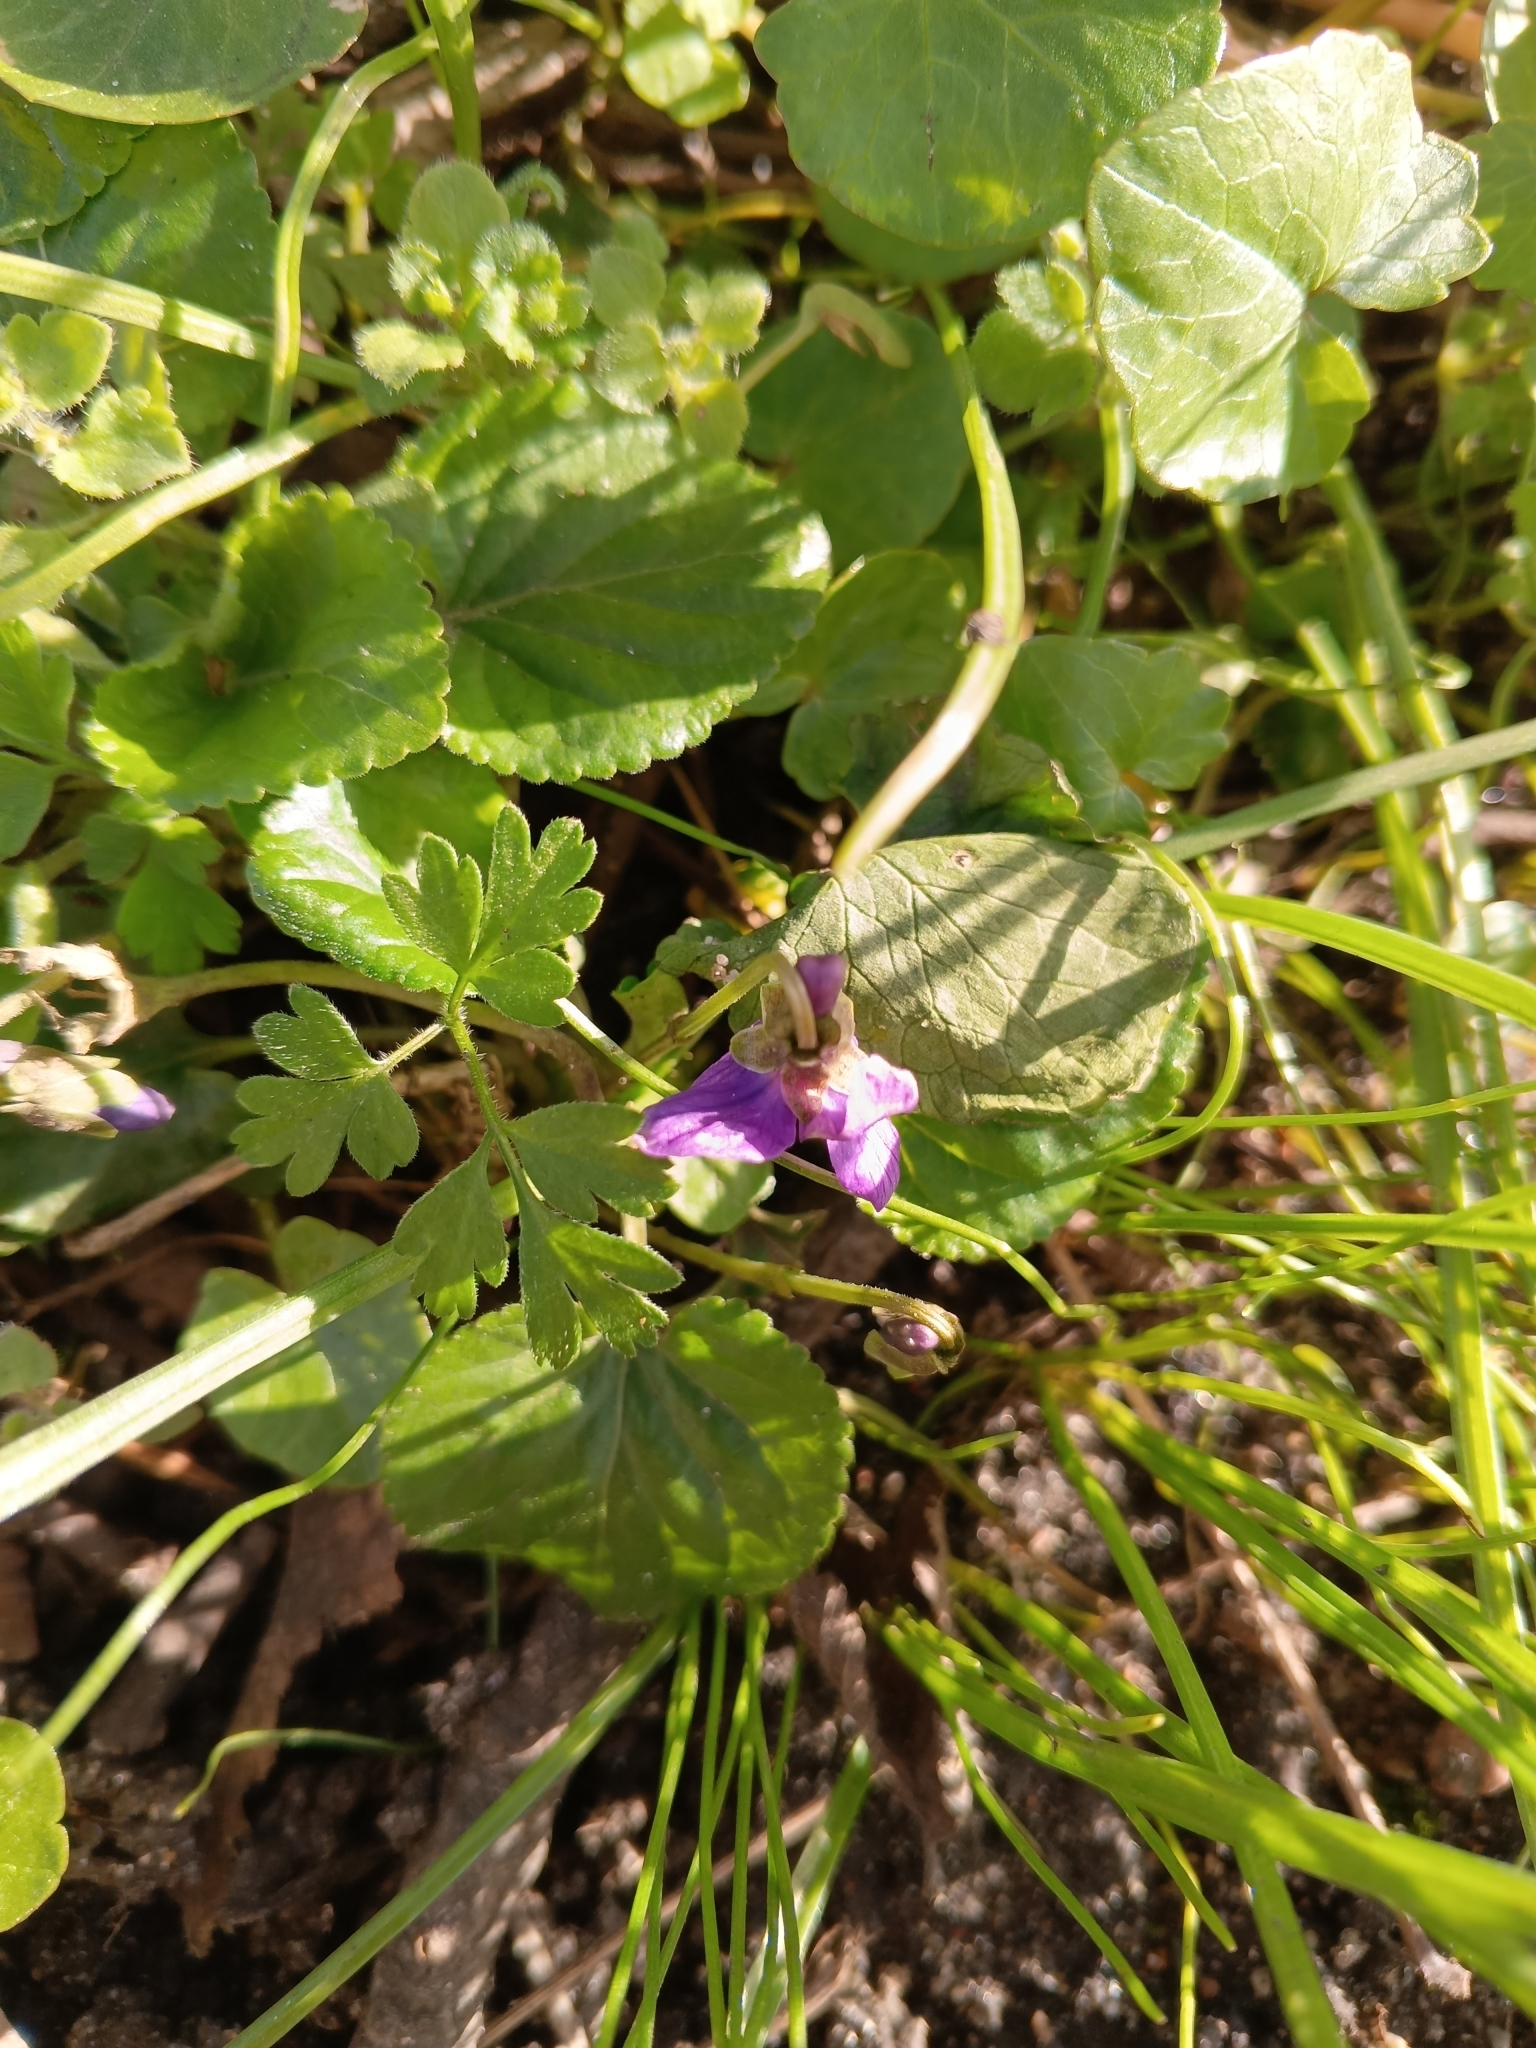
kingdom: Plantae
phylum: Tracheophyta
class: Magnoliopsida
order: Malpighiales
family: Violaceae
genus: Viola
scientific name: Viola odorata
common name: Sweet violet
